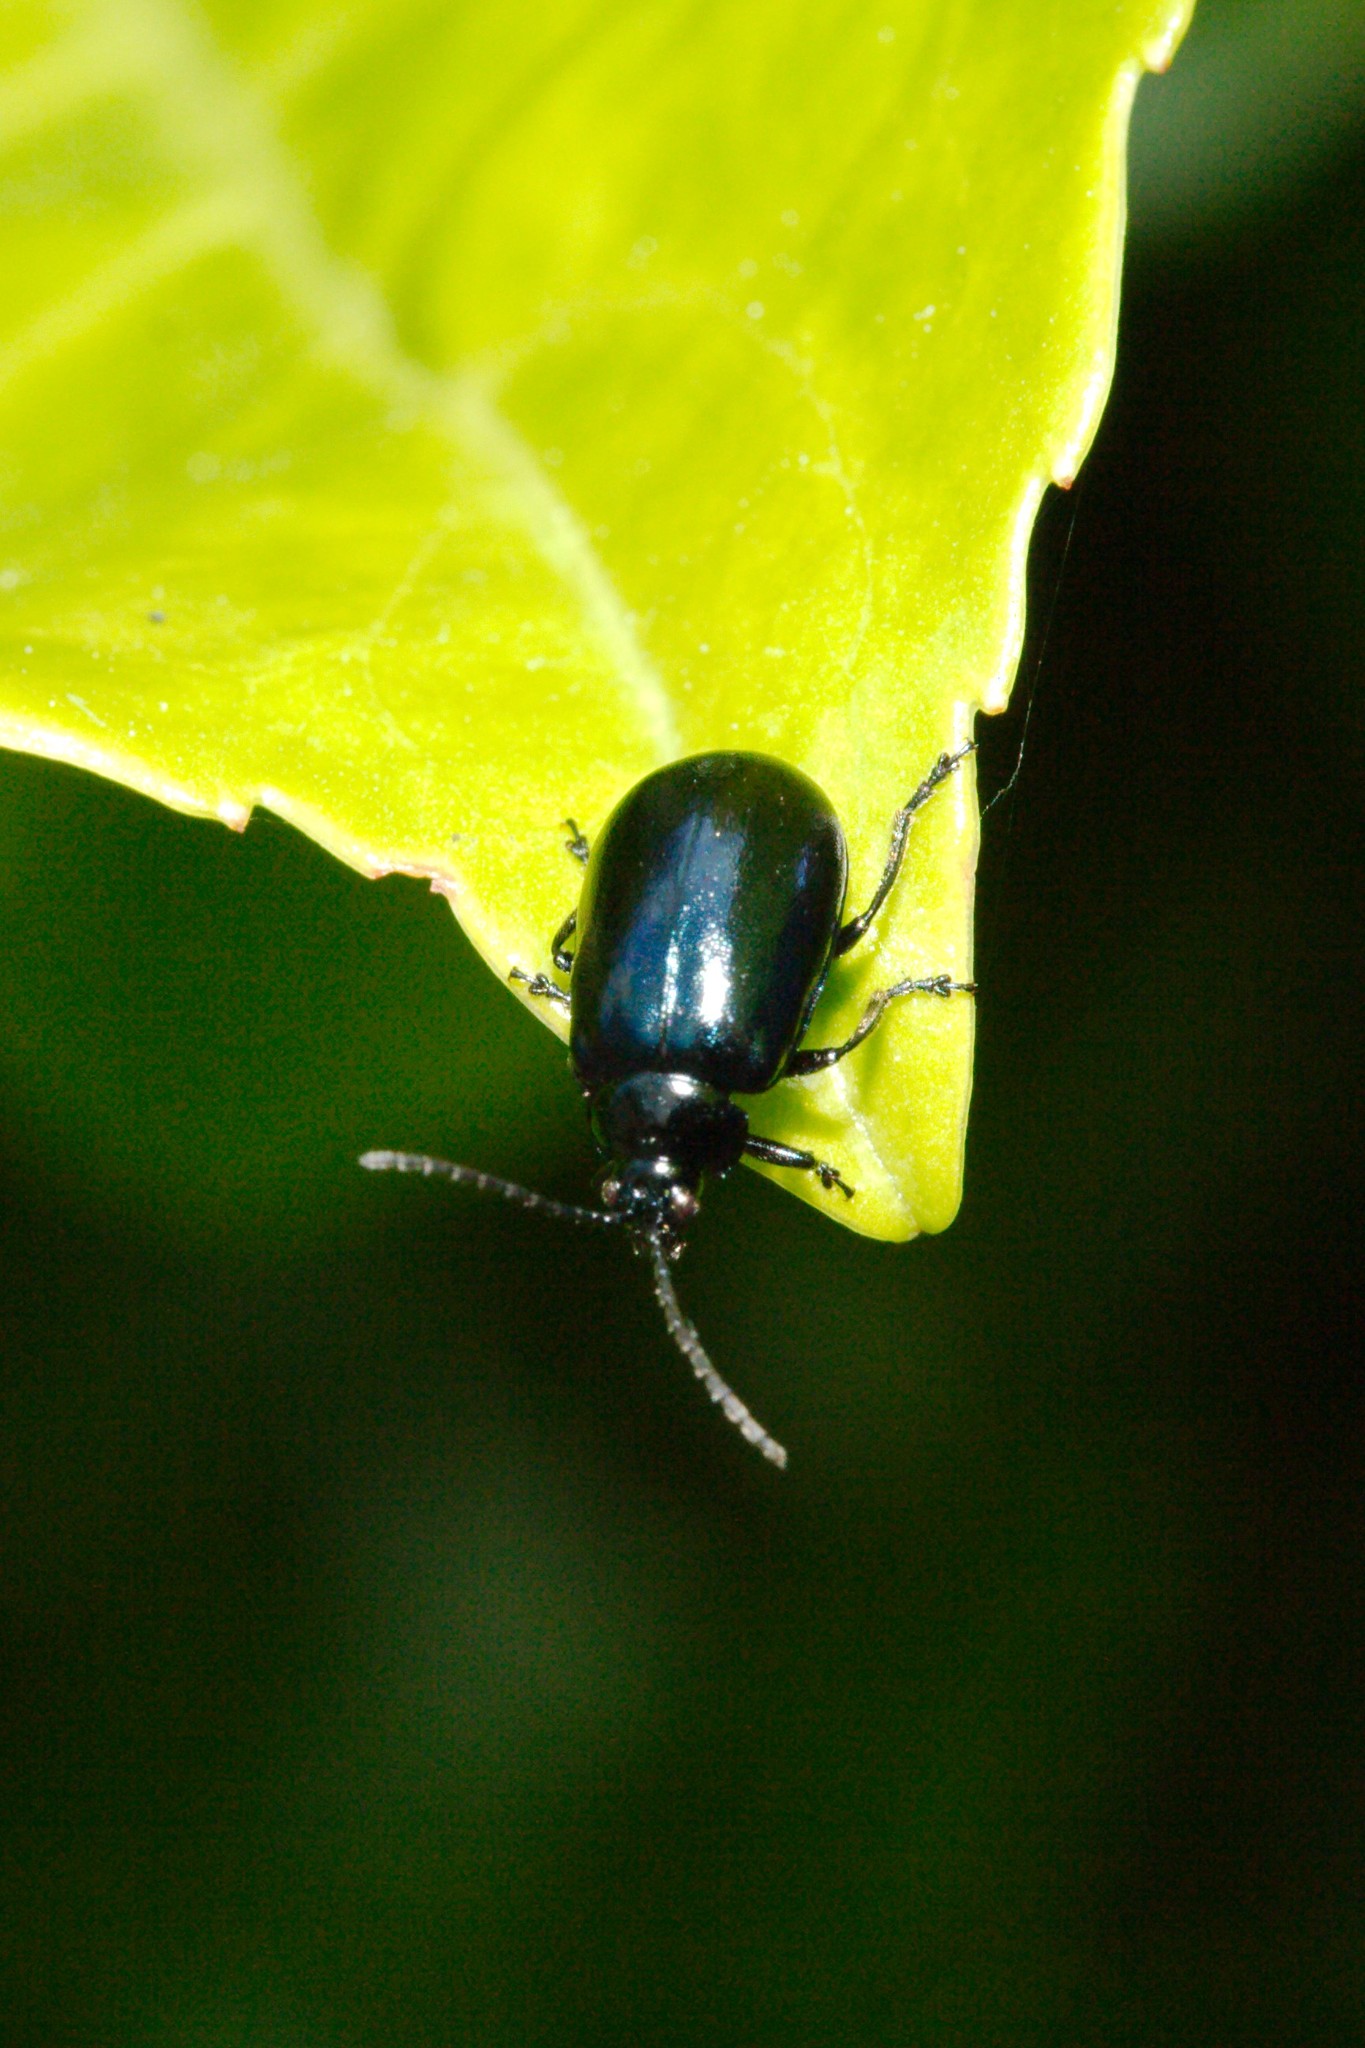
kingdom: Animalia
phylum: Arthropoda
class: Insecta
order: Coleoptera
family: Chrysomelidae
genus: Agelastica
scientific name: Agelastica alni
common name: Alder leaf beetle
